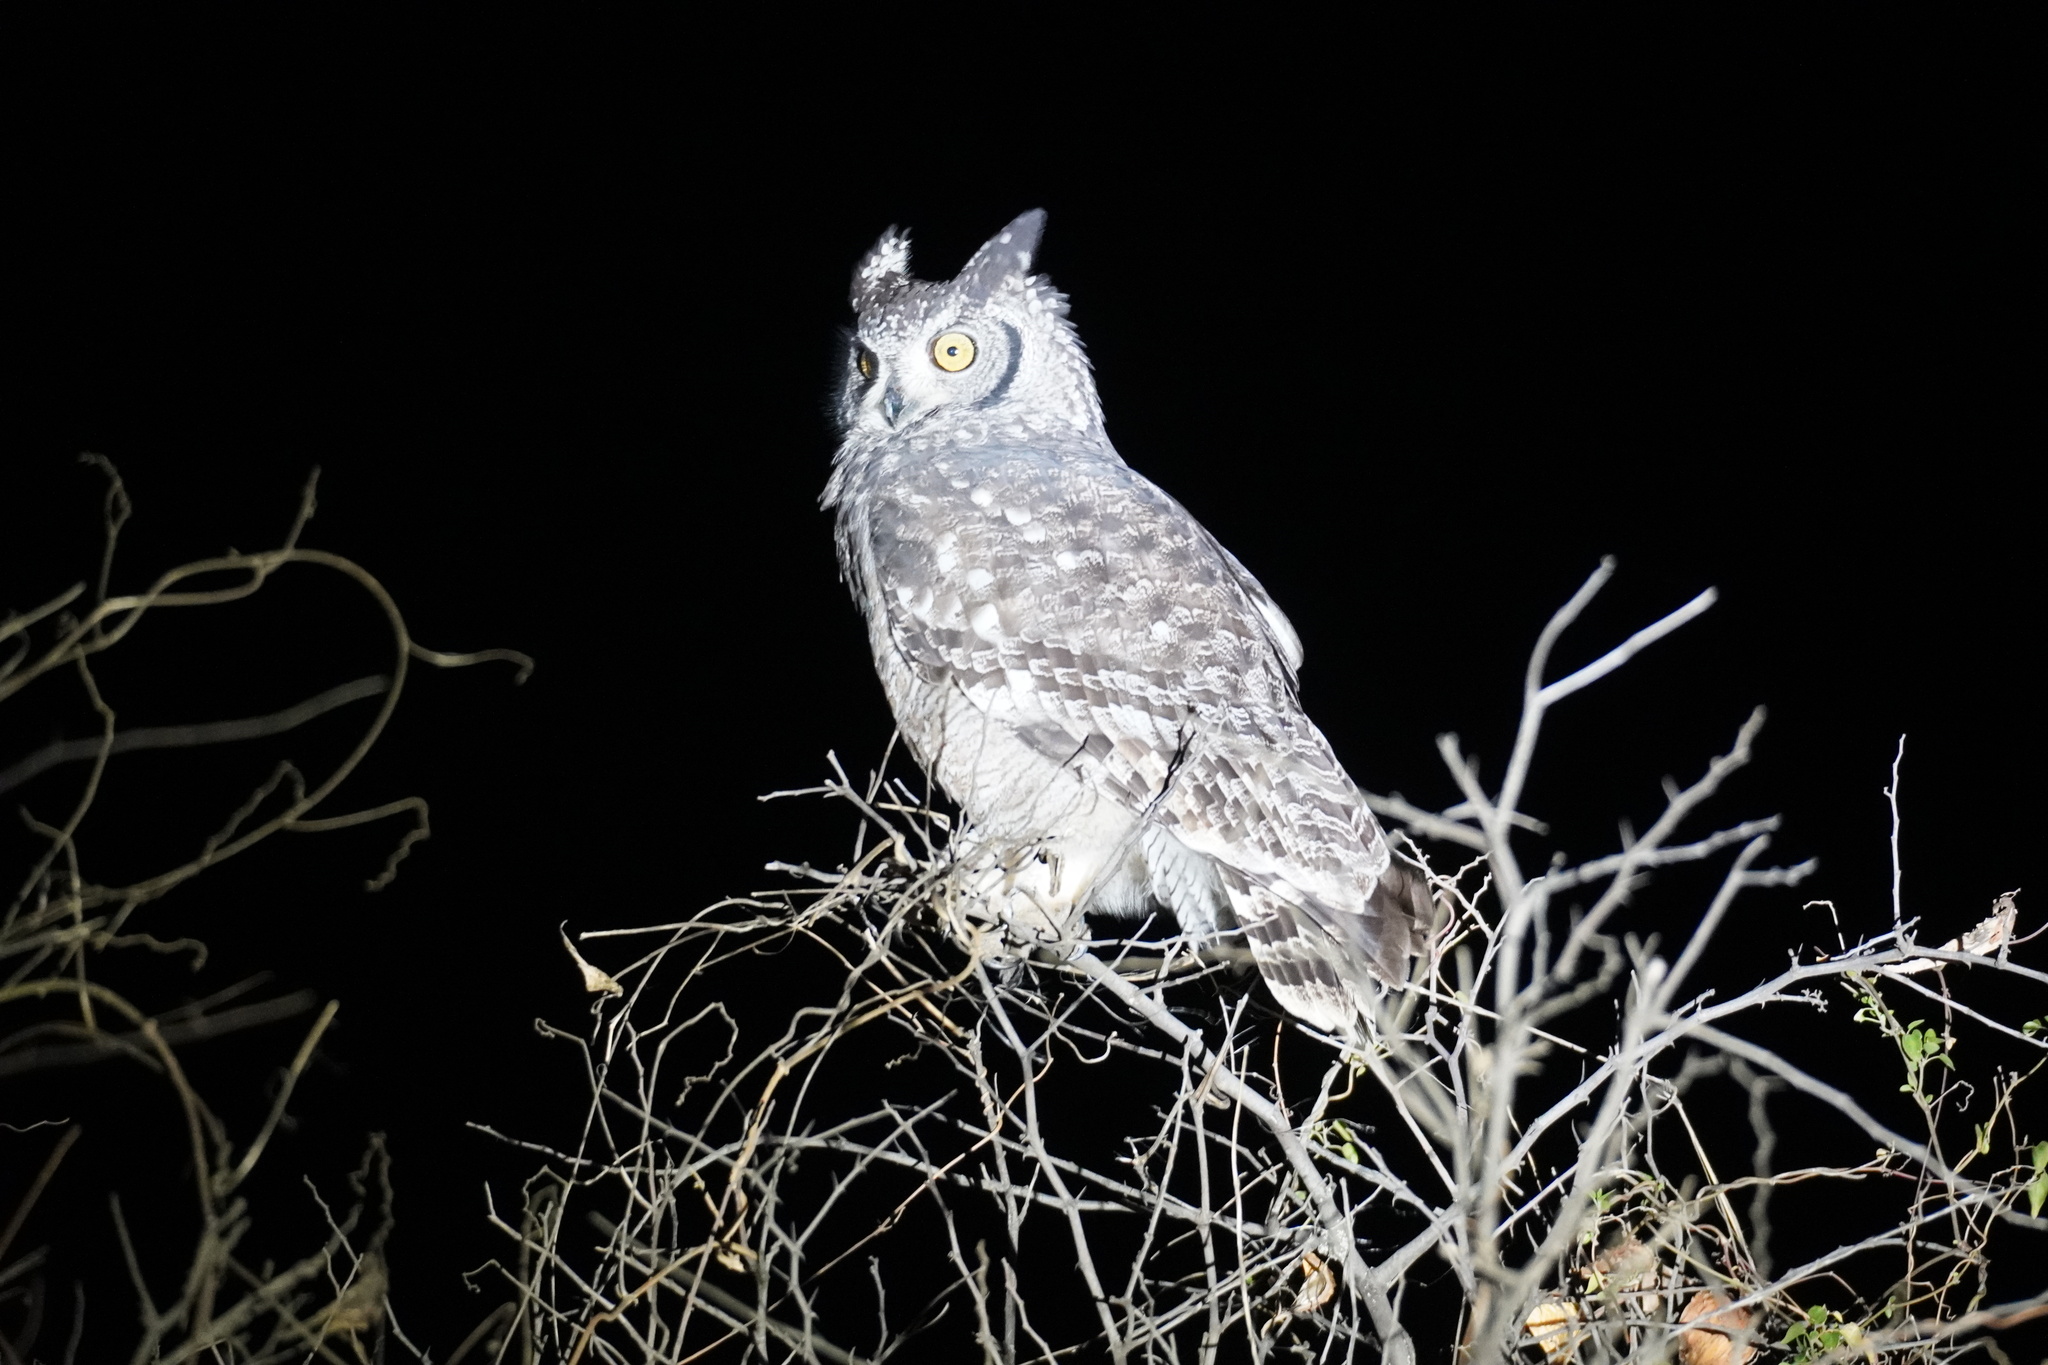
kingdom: Animalia
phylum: Chordata
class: Aves
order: Strigiformes
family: Strigidae
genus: Bubo
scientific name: Bubo africanus
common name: Spotted eagle-owl
